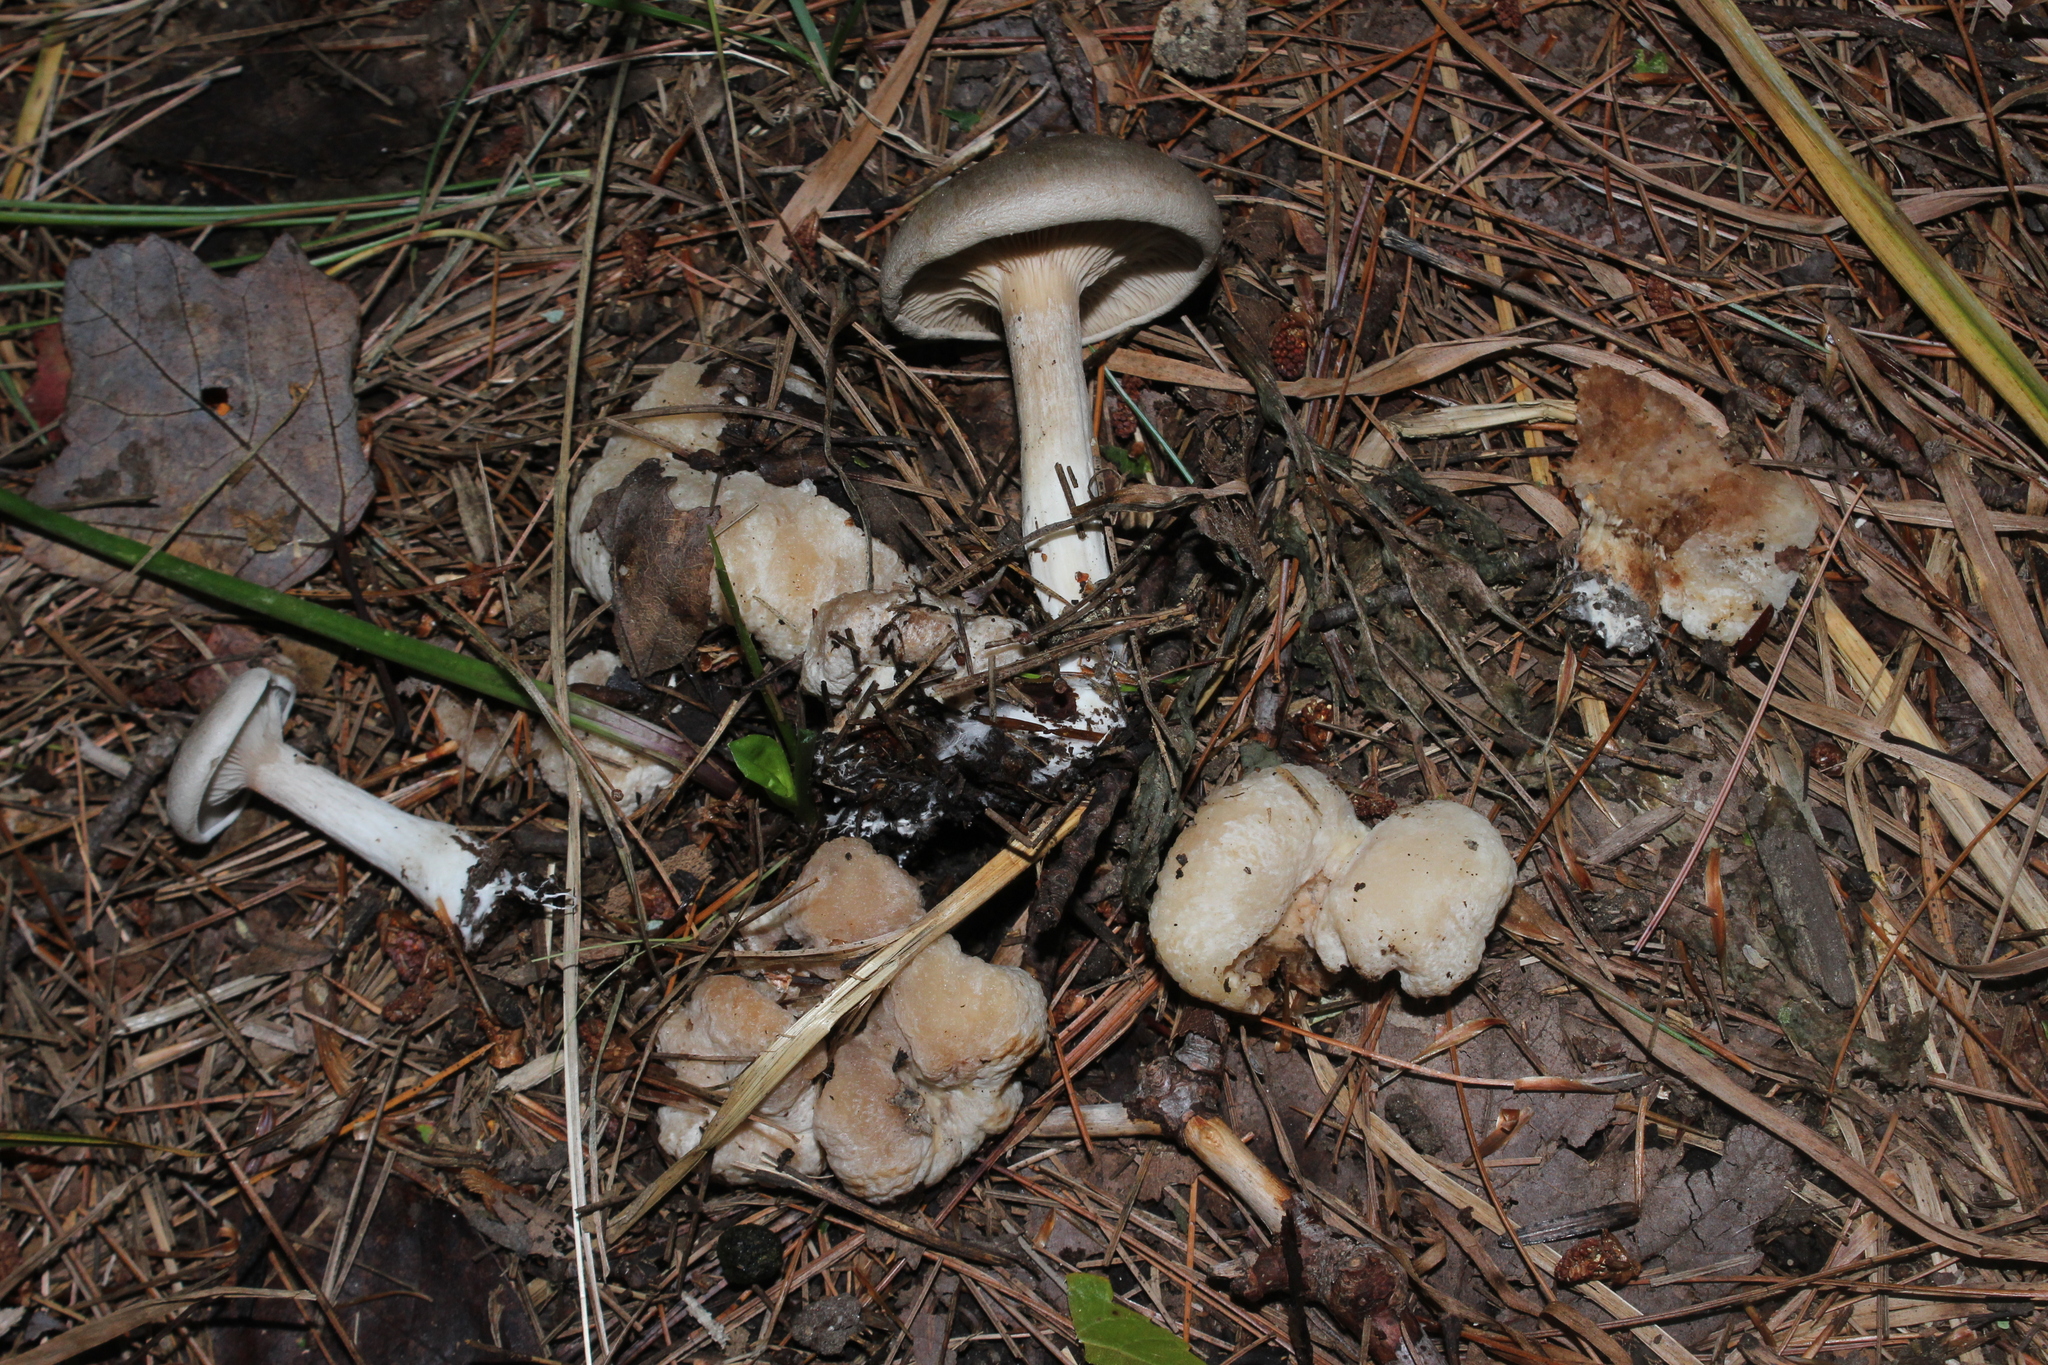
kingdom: Fungi
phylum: Basidiomycota
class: Agaricomycetes
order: Agaricales
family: Entolomataceae
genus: Entoloma
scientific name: Entoloma abortivum
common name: Aborted entoloma
